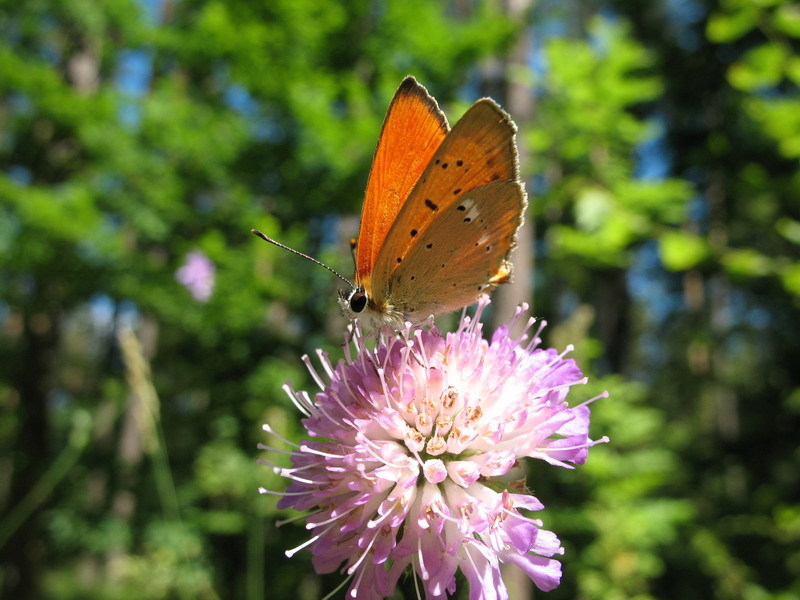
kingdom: Animalia
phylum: Arthropoda
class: Insecta
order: Lepidoptera
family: Lycaenidae
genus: Lycaena
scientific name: Lycaena virgaureae
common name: Scarce copper
